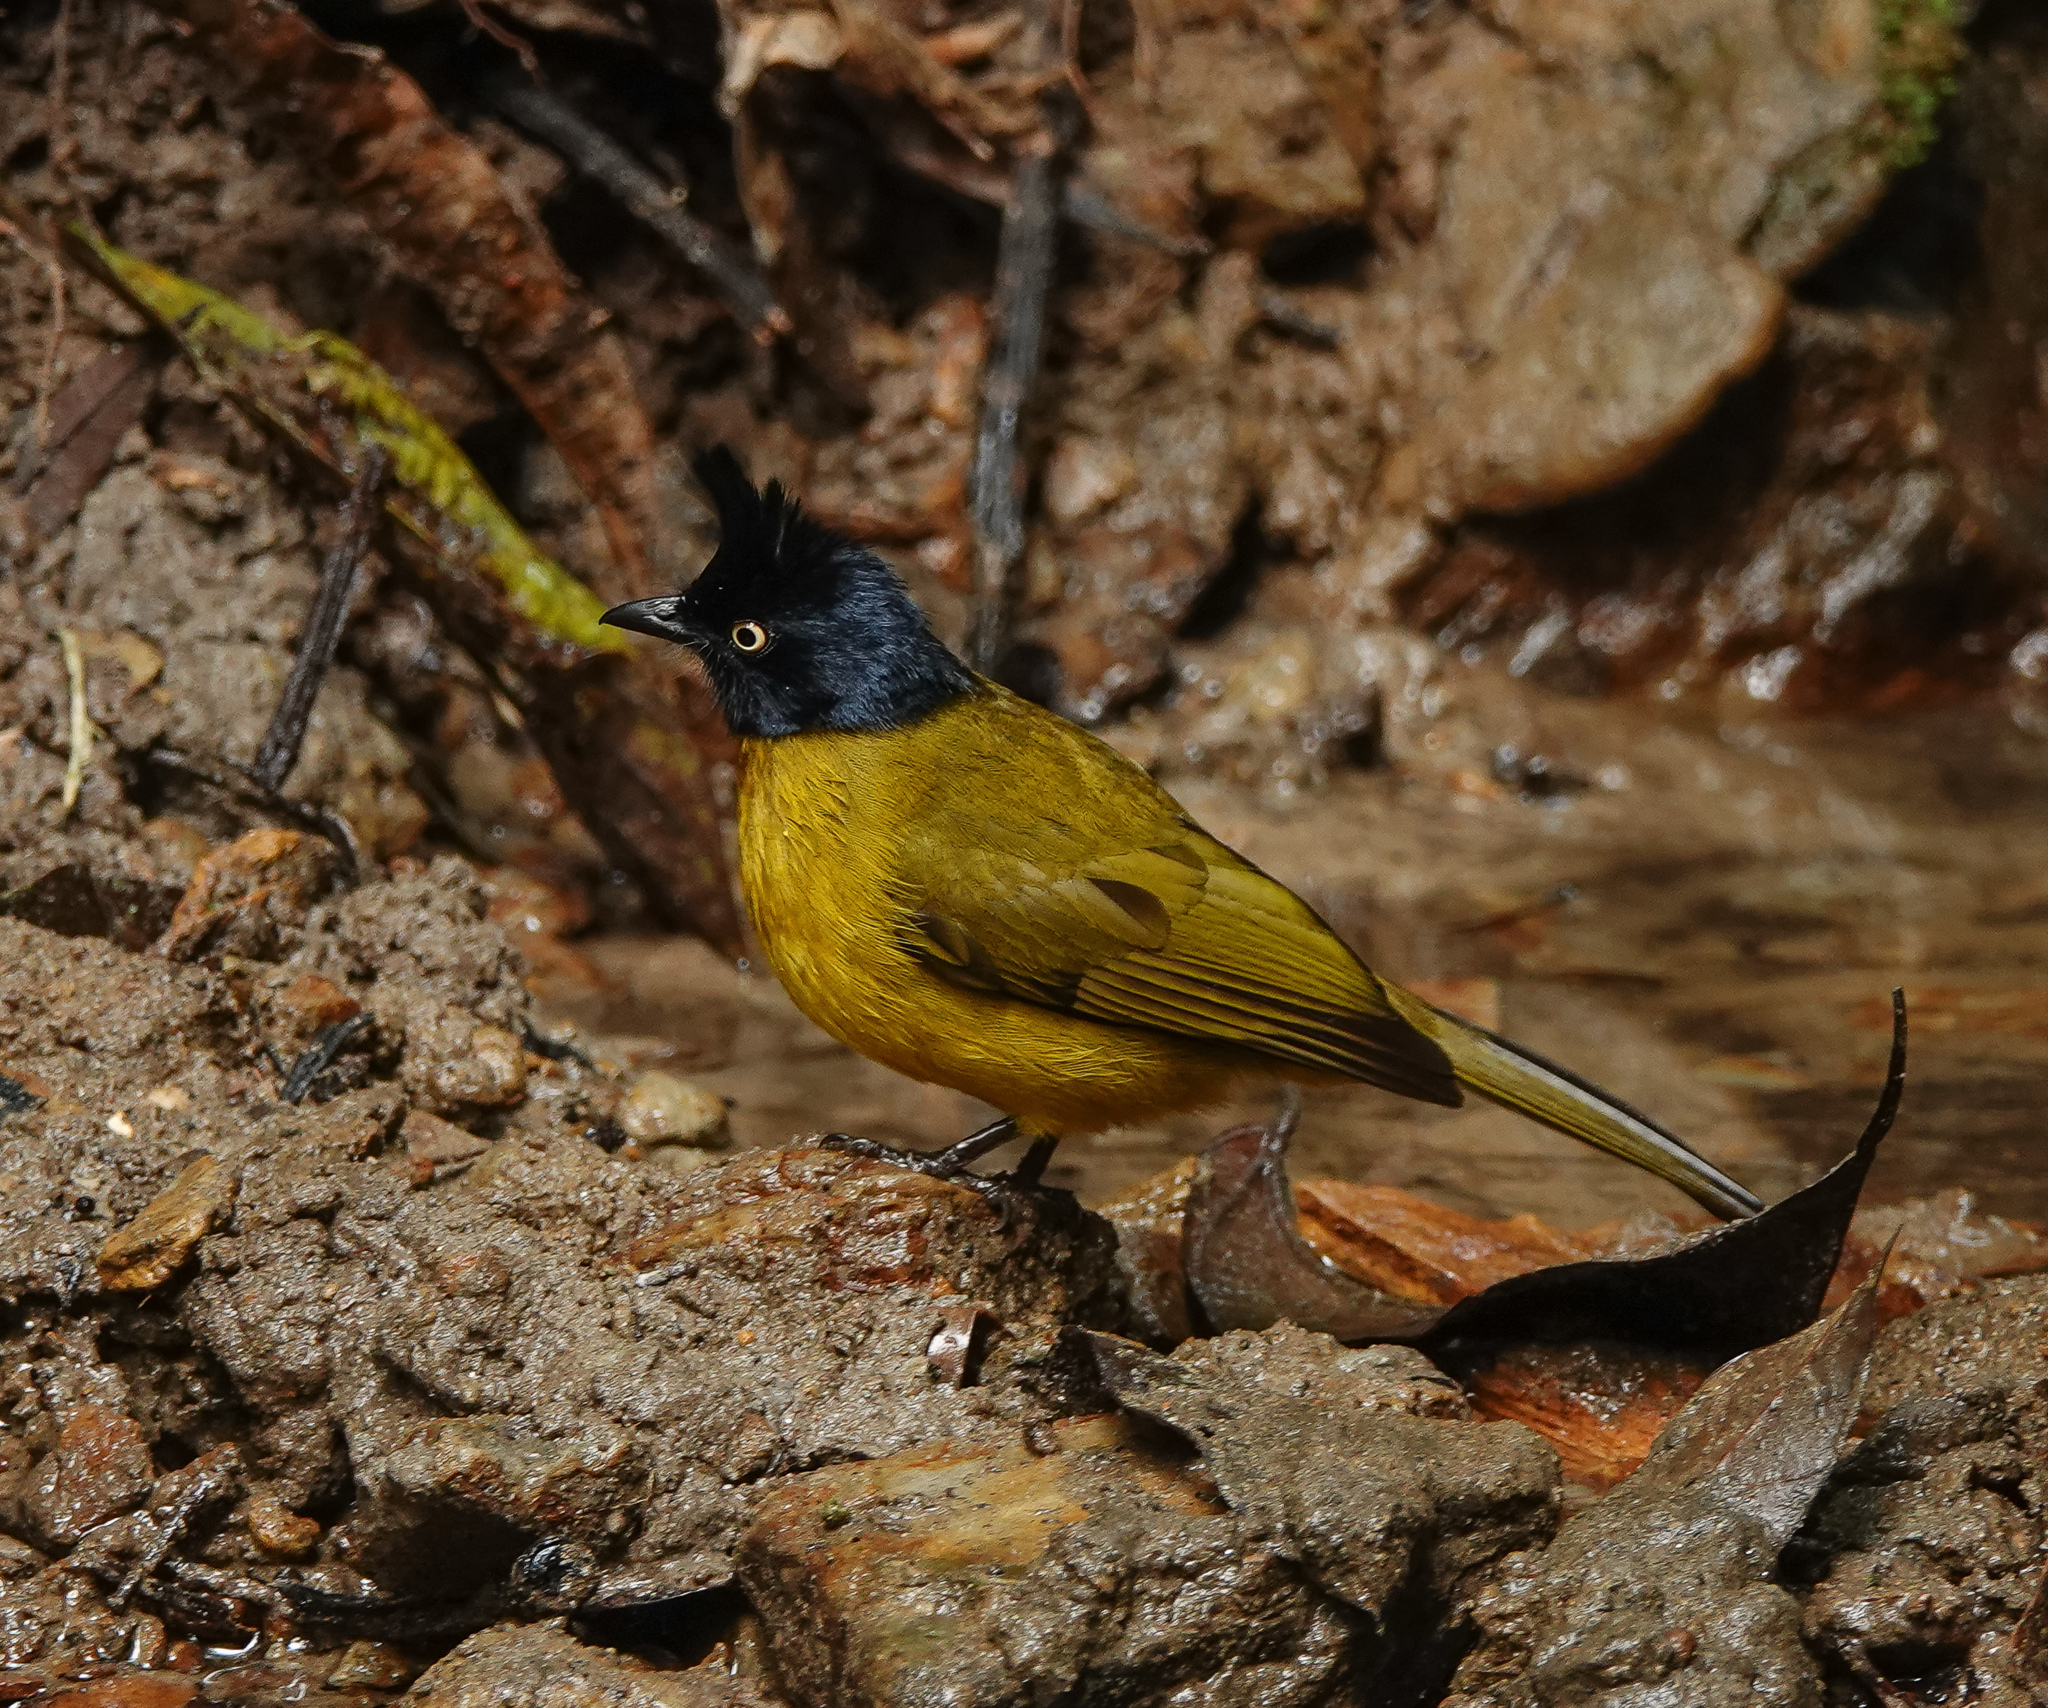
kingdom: Animalia
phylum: Chordata
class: Aves
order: Passeriformes
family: Pycnonotidae
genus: Pycnonotus
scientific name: Pycnonotus flaviventris
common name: Black-crested bulbul
